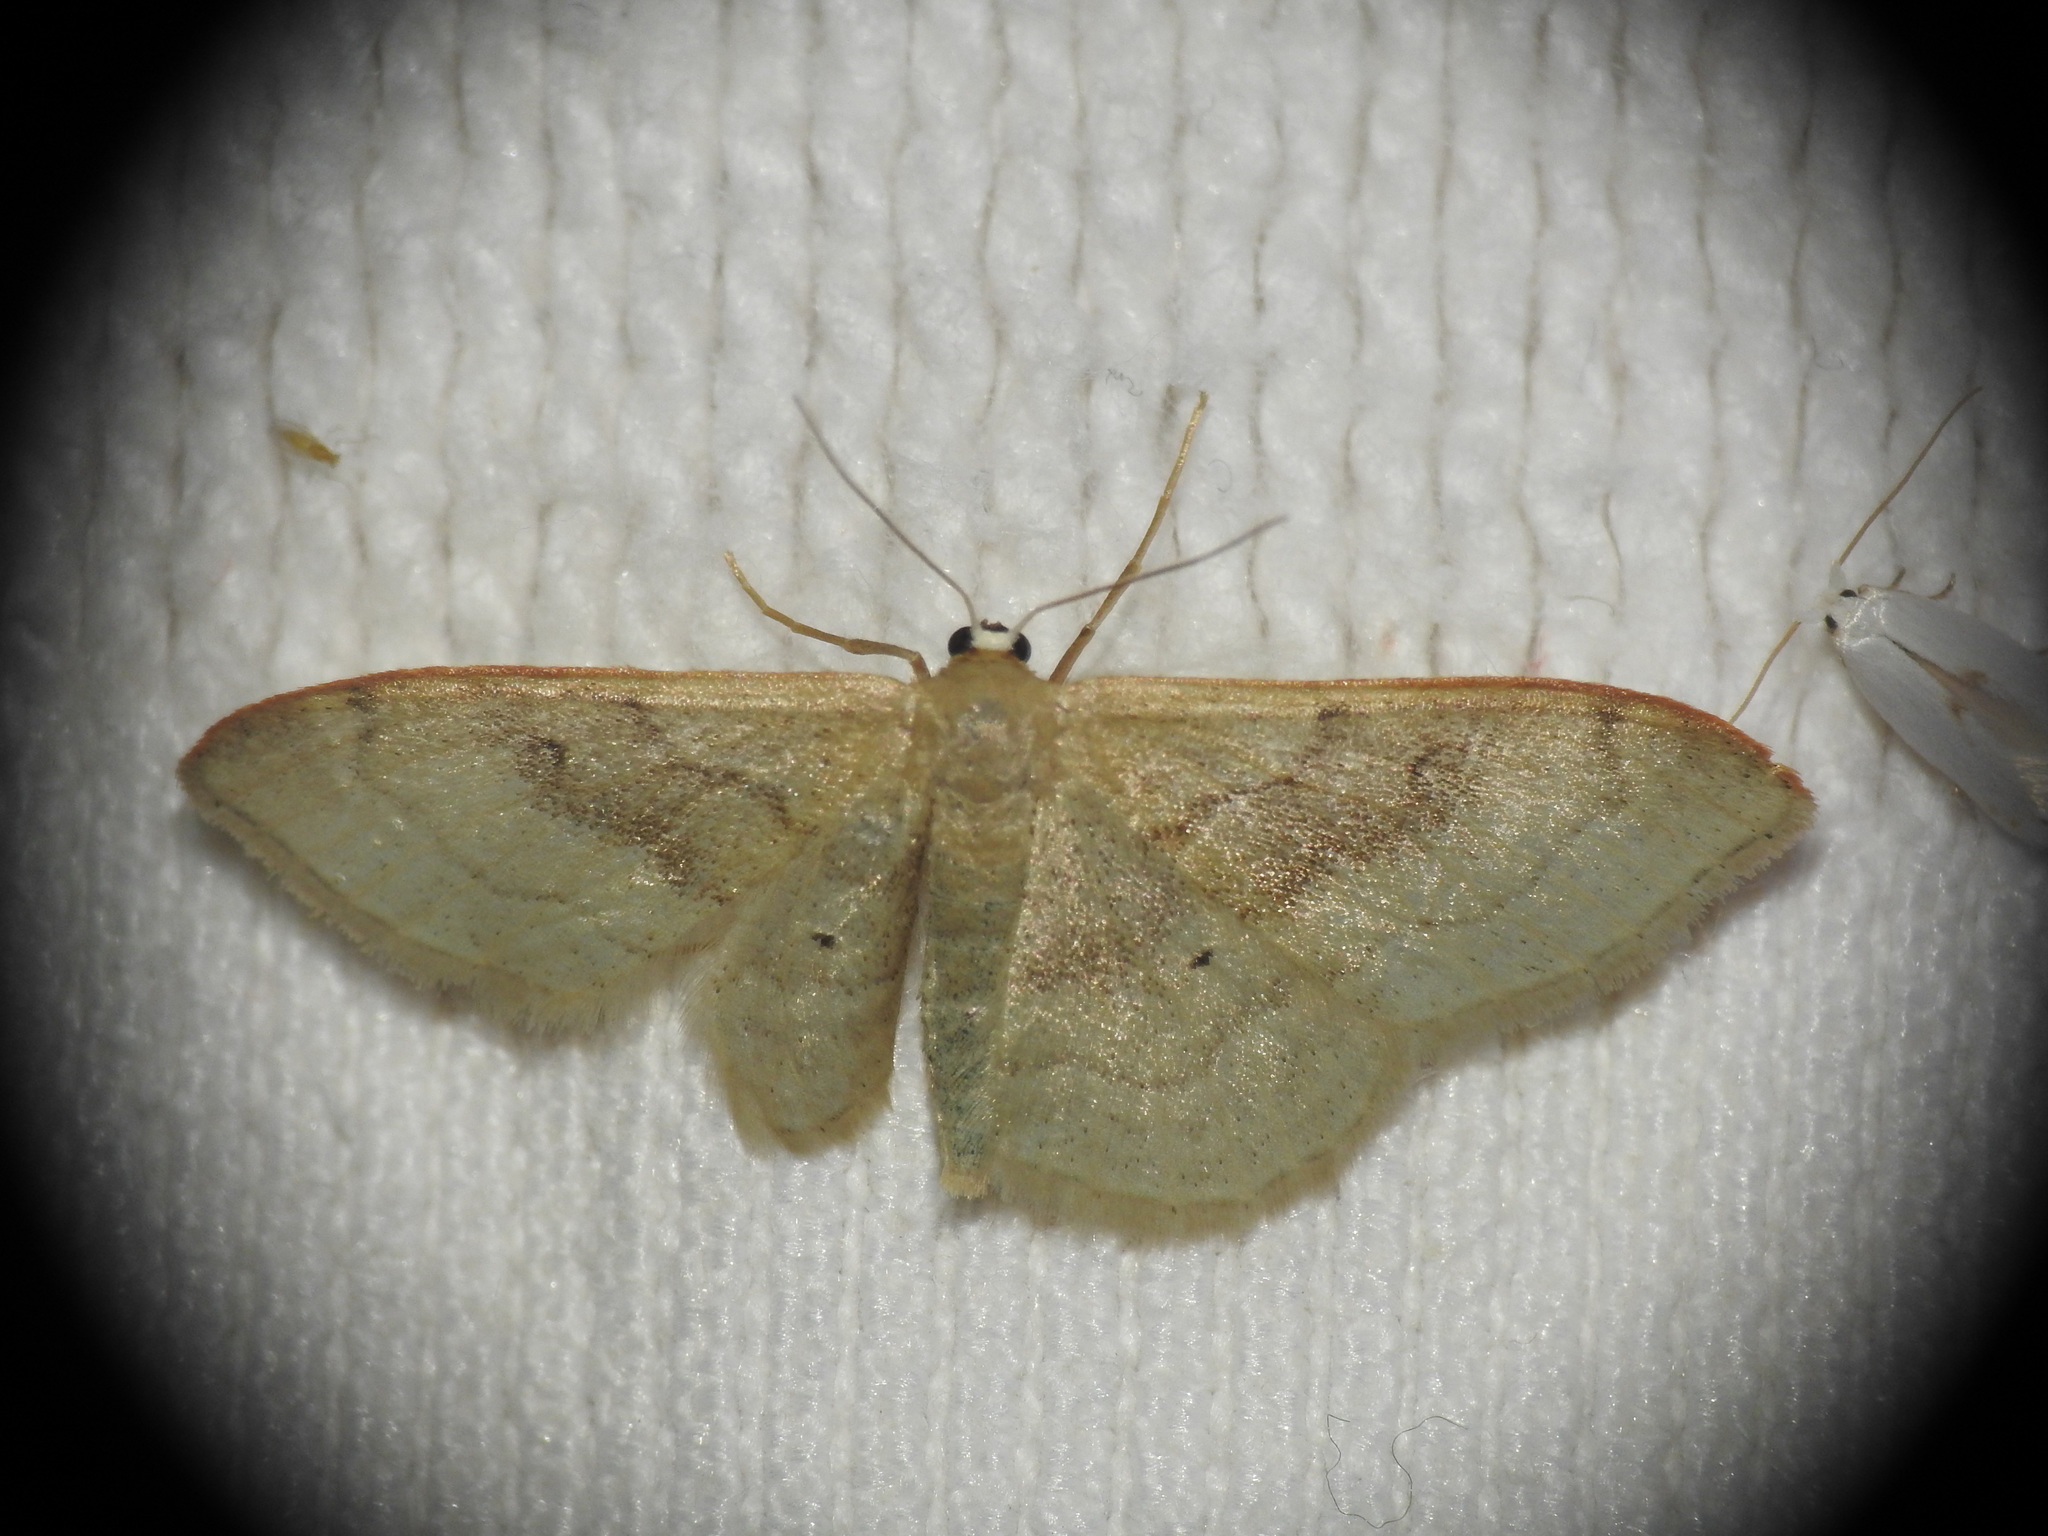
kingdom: Animalia
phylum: Arthropoda
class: Insecta
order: Lepidoptera
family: Geometridae
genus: Idaea
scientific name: Idaea degeneraria
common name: Portland ribbon wave
